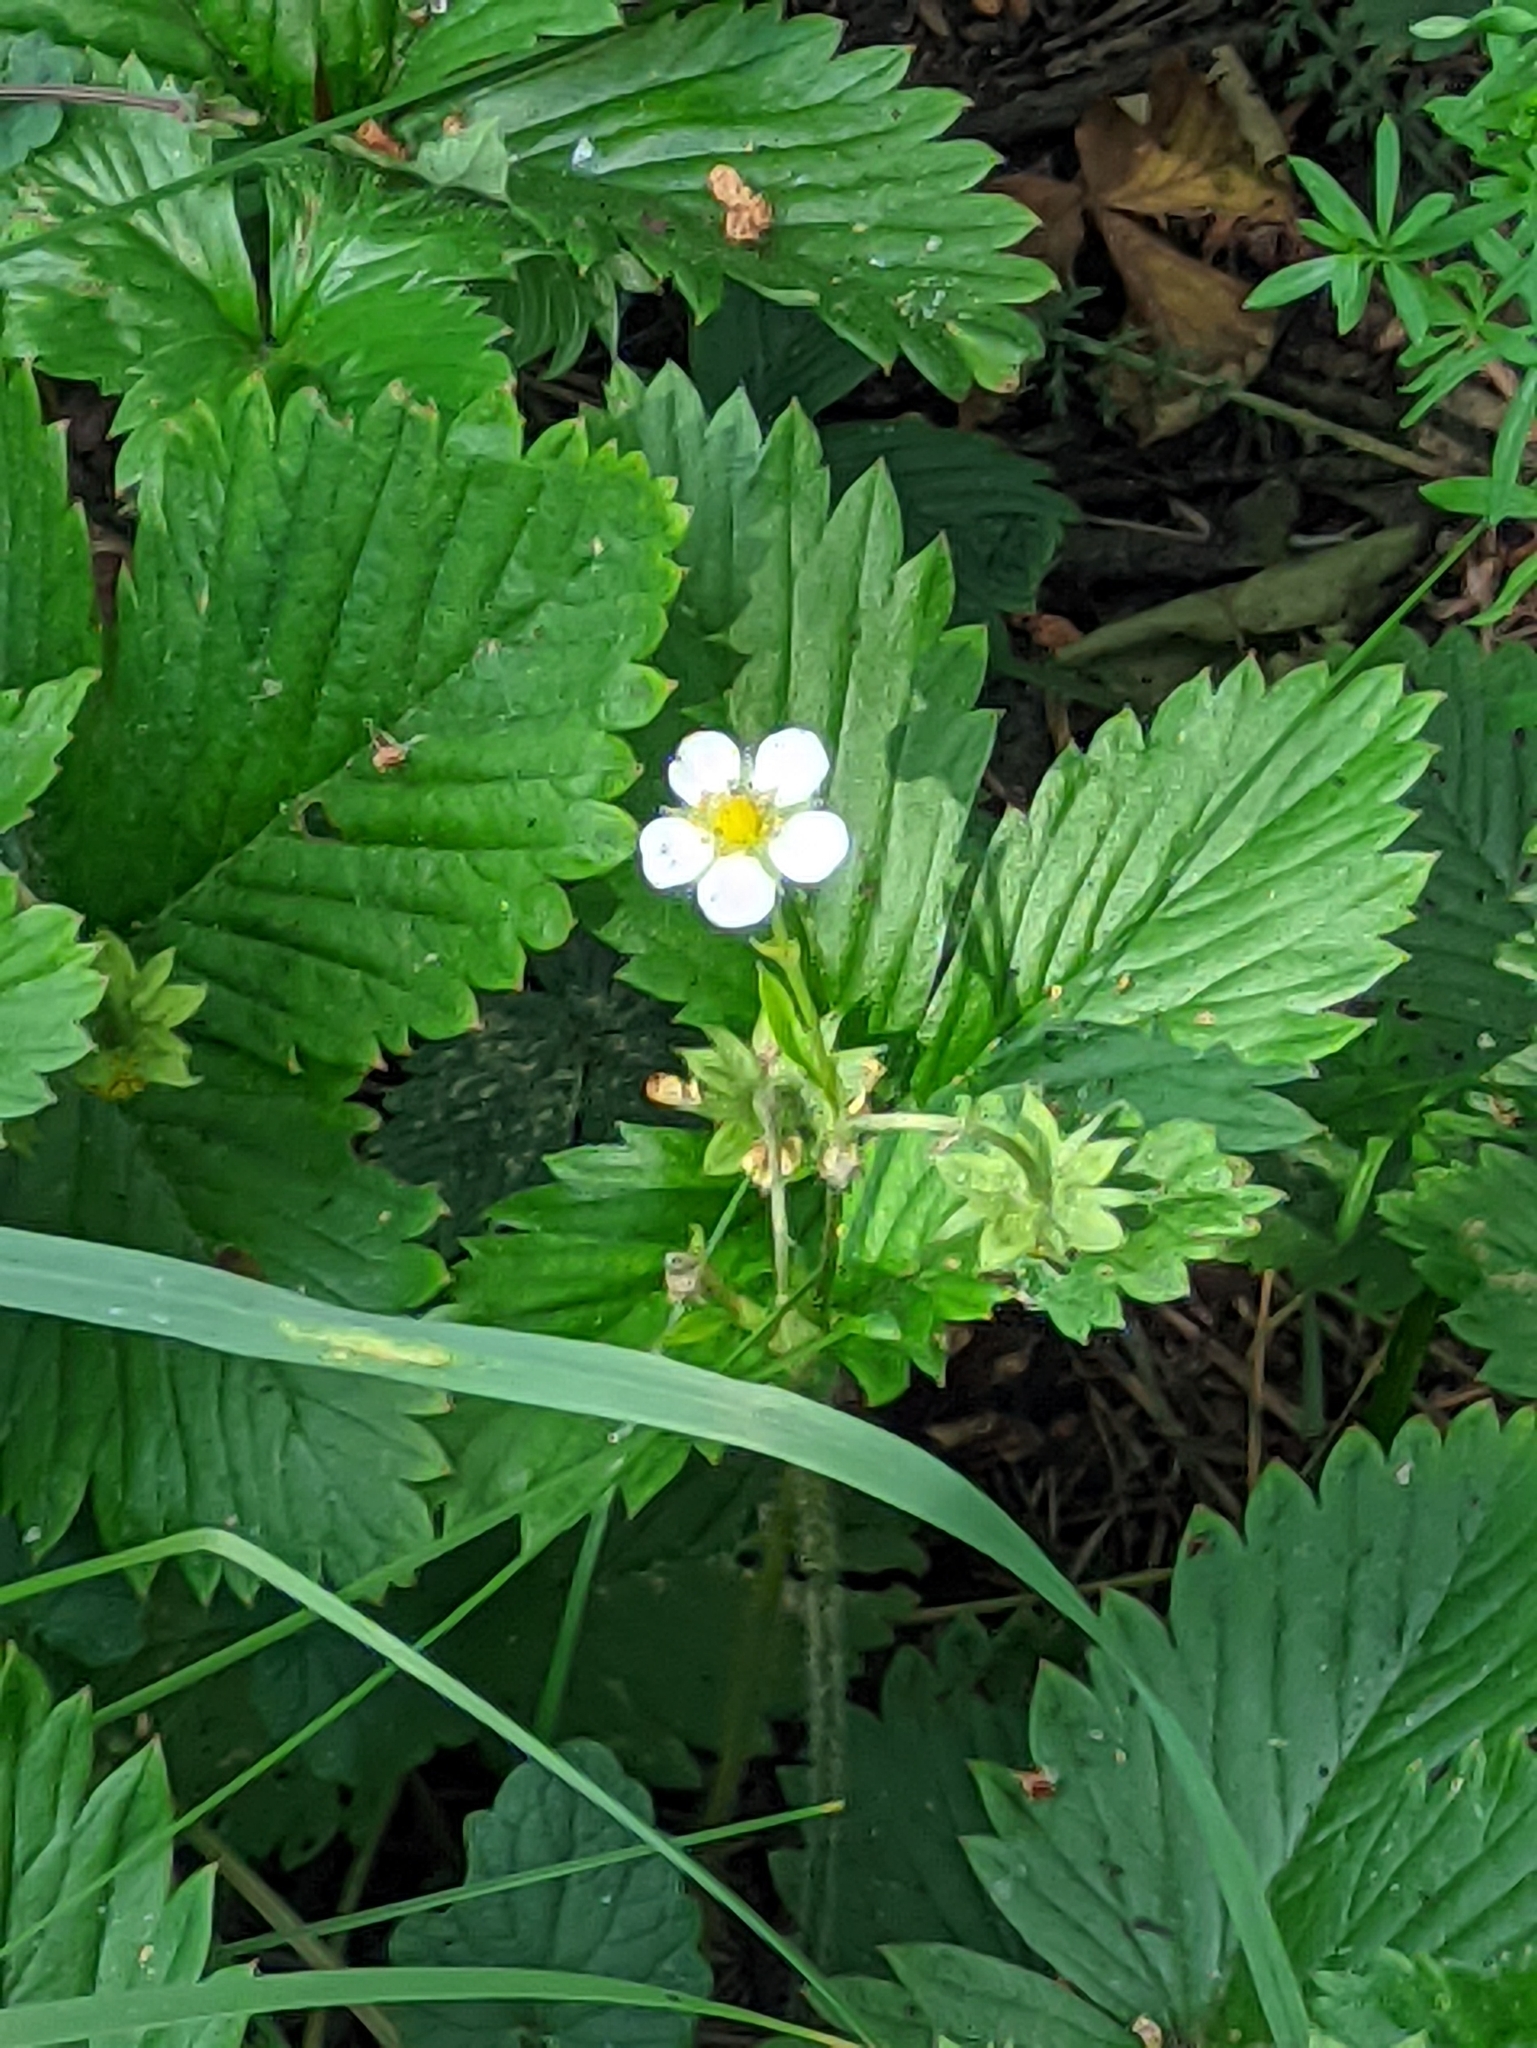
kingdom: Plantae
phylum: Tracheophyta
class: Magnoliopsida
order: Rosales
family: Rosaceae
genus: Fragaria
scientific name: Fragaria vesca
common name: Wild strawberry
